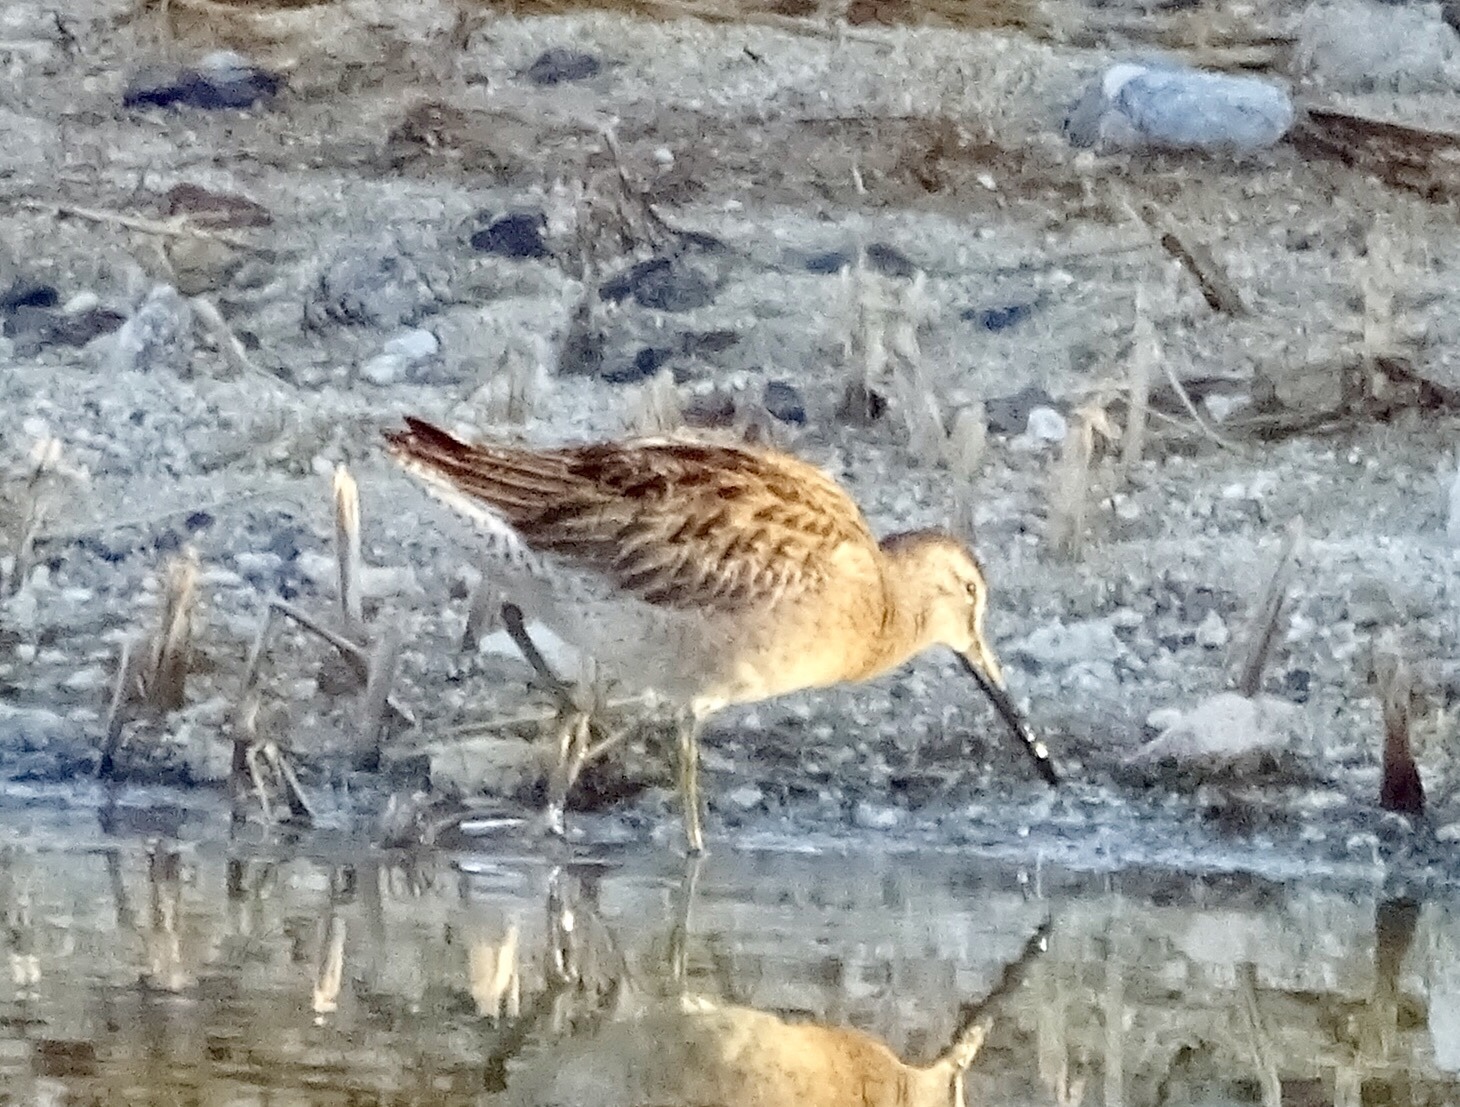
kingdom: Animalia
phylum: Chordata
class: Aves
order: Charadriiformes
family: Scolopacidae
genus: Limnodromus
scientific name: Limnodromus scolopaceus
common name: Long-billed dowitcher
